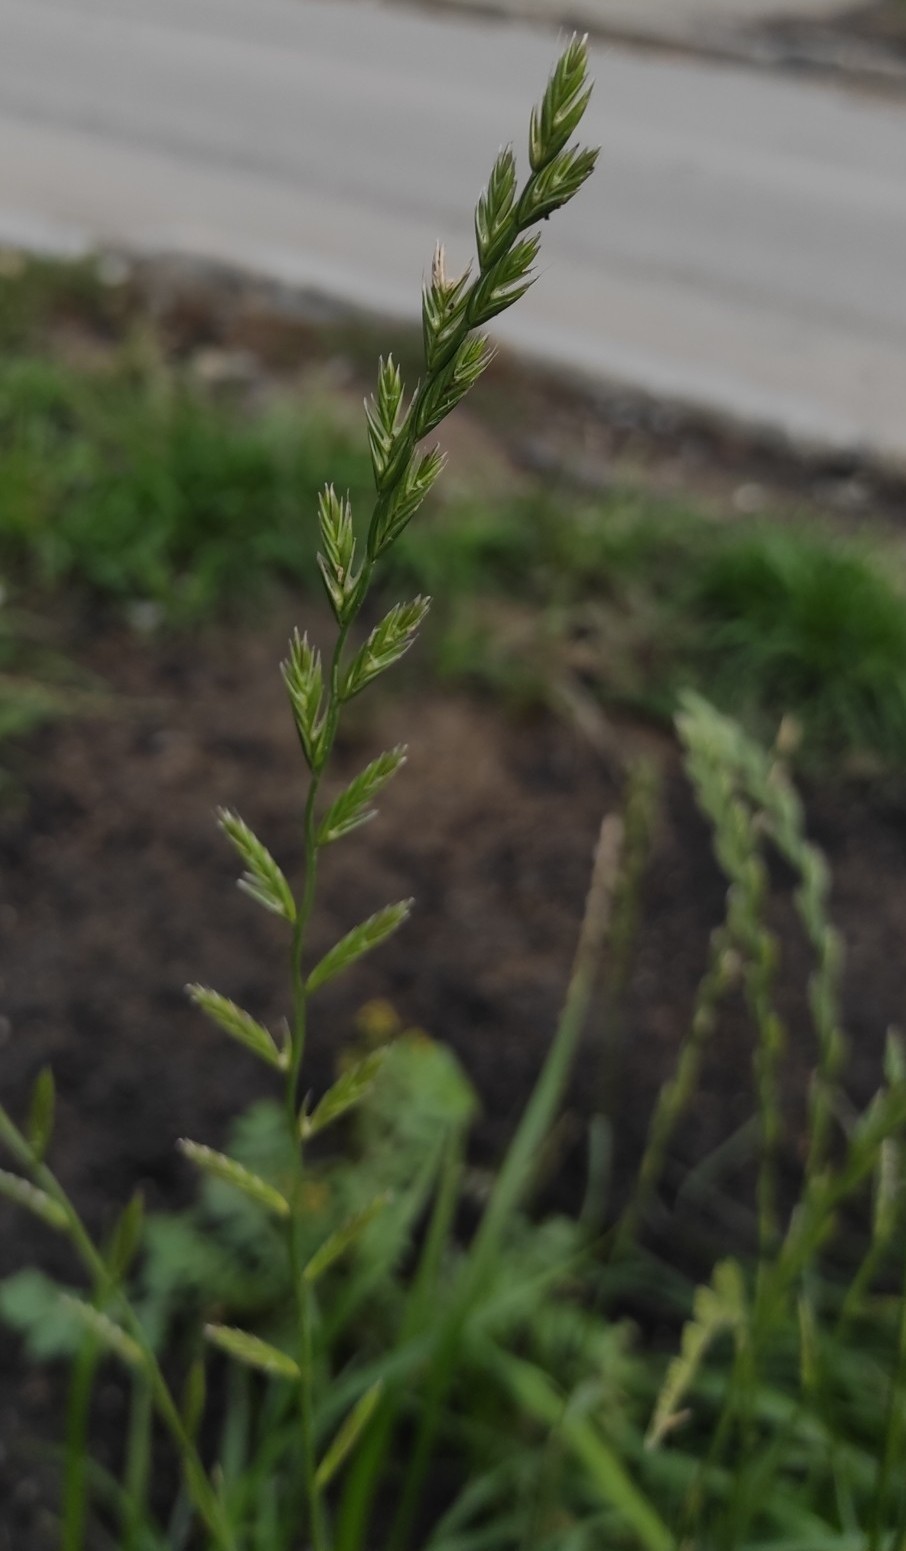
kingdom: Plantae
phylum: Tracheophyta
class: Liliopsida
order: Poales
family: Poaceae
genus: Lolium
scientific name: Lolium perenne
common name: Perennial ryegrass
